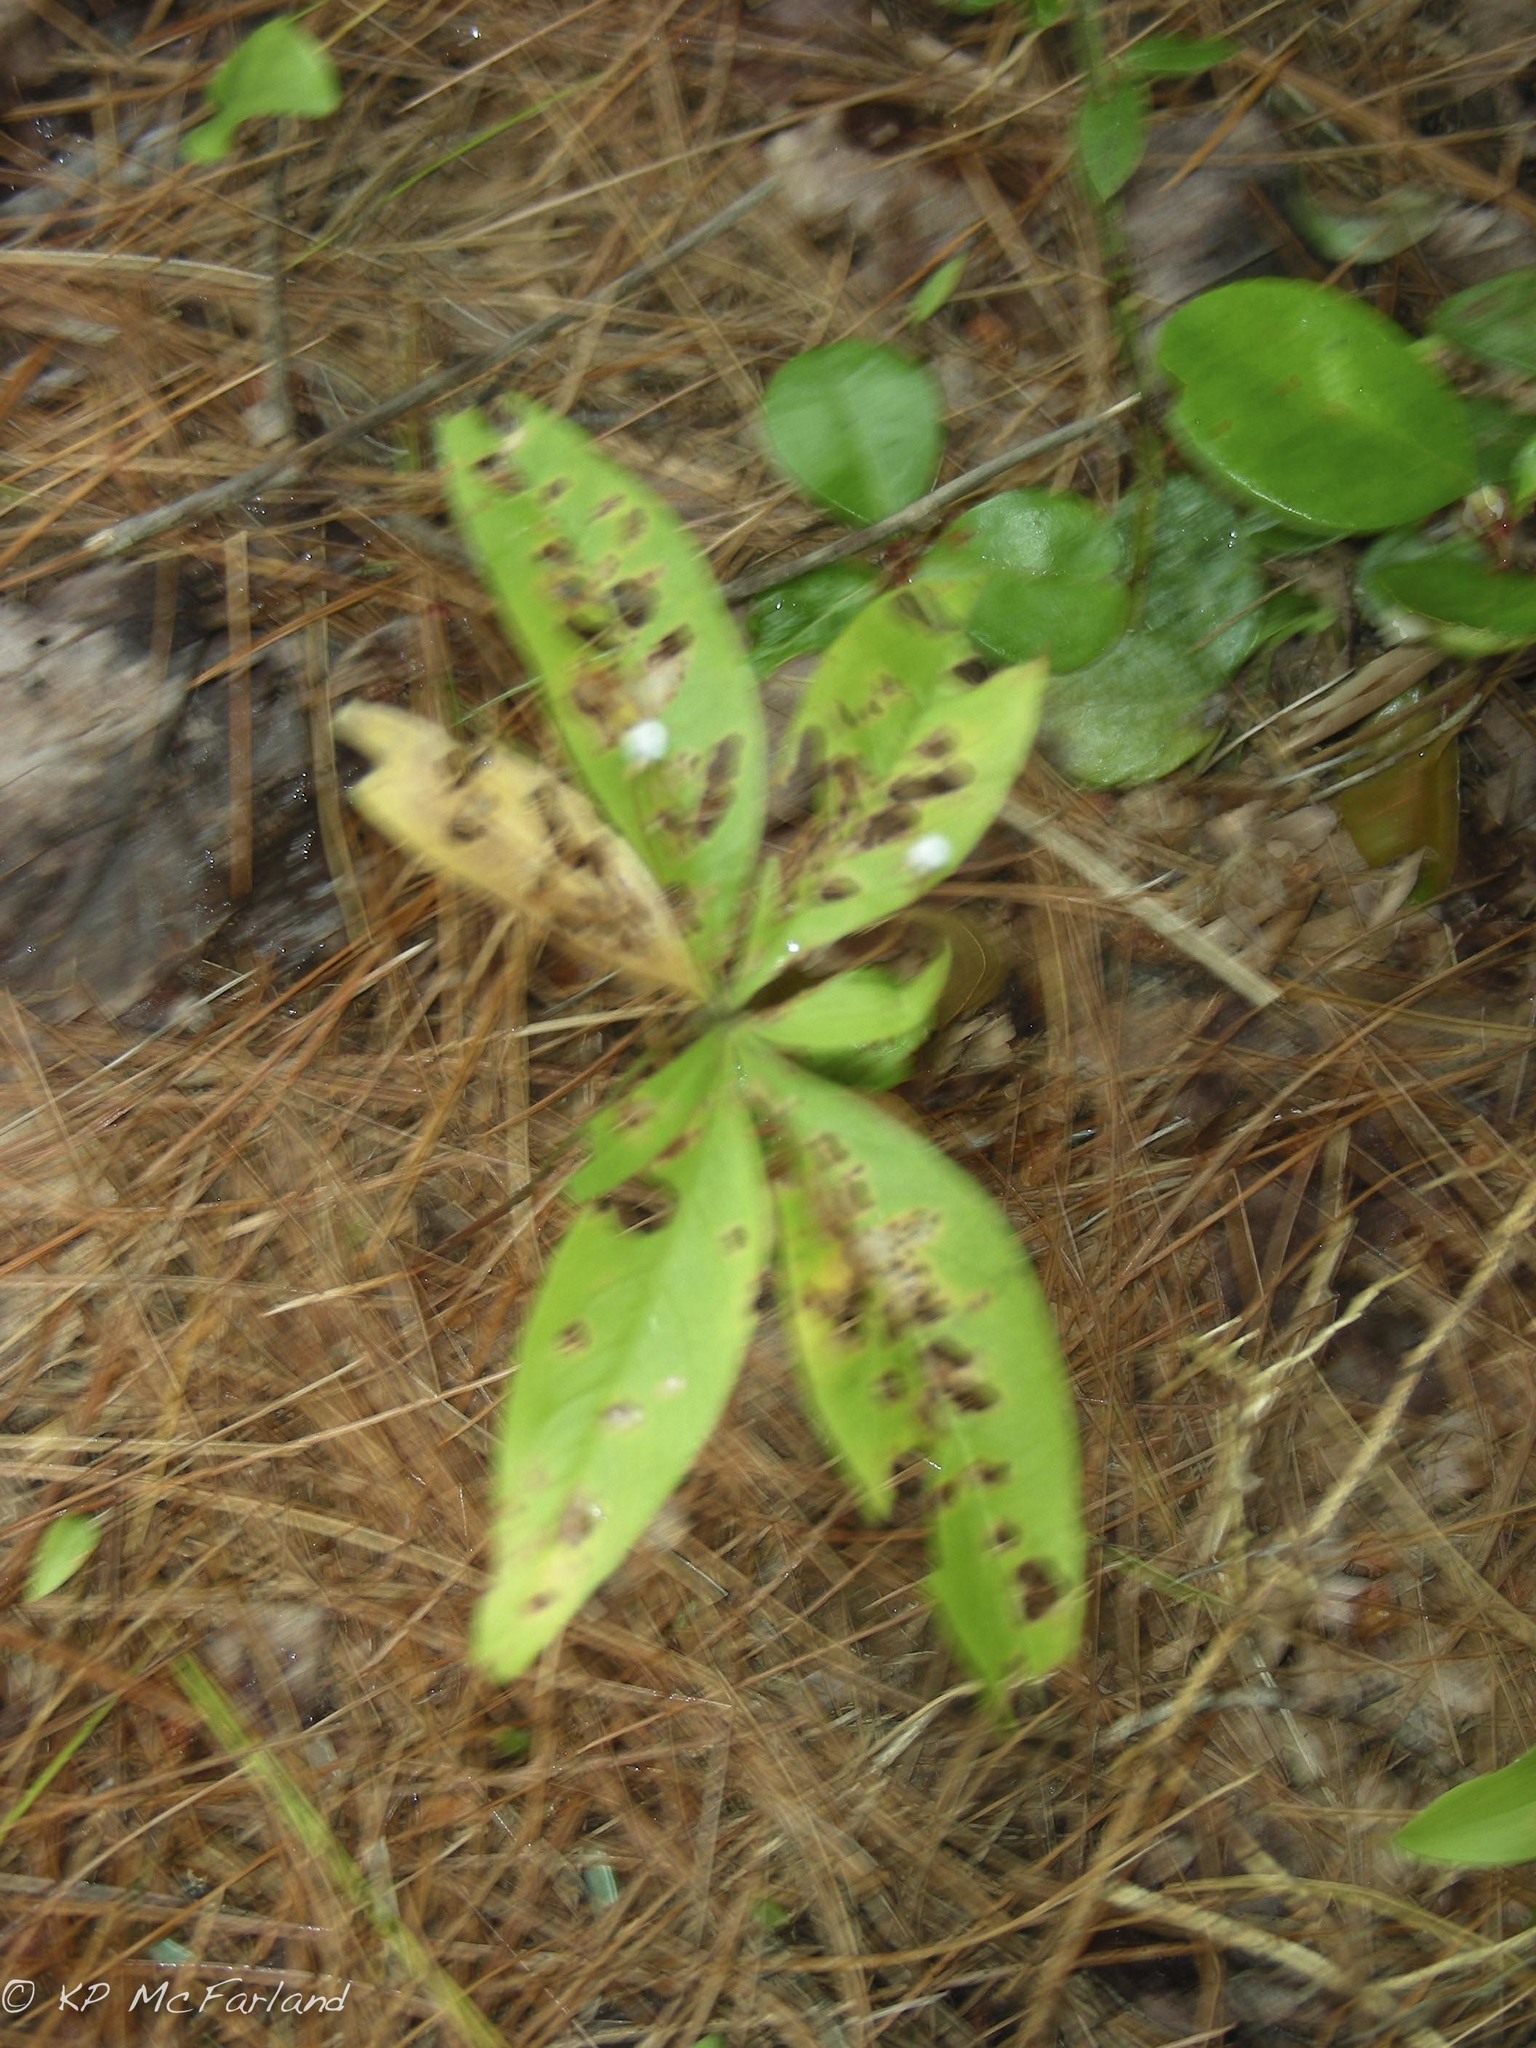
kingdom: Plantae
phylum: Tracheophyta
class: Magnoliopsida
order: Ericales
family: Primulaceae
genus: Lysimachia
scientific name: Lysimachia borealis
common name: American starflower
